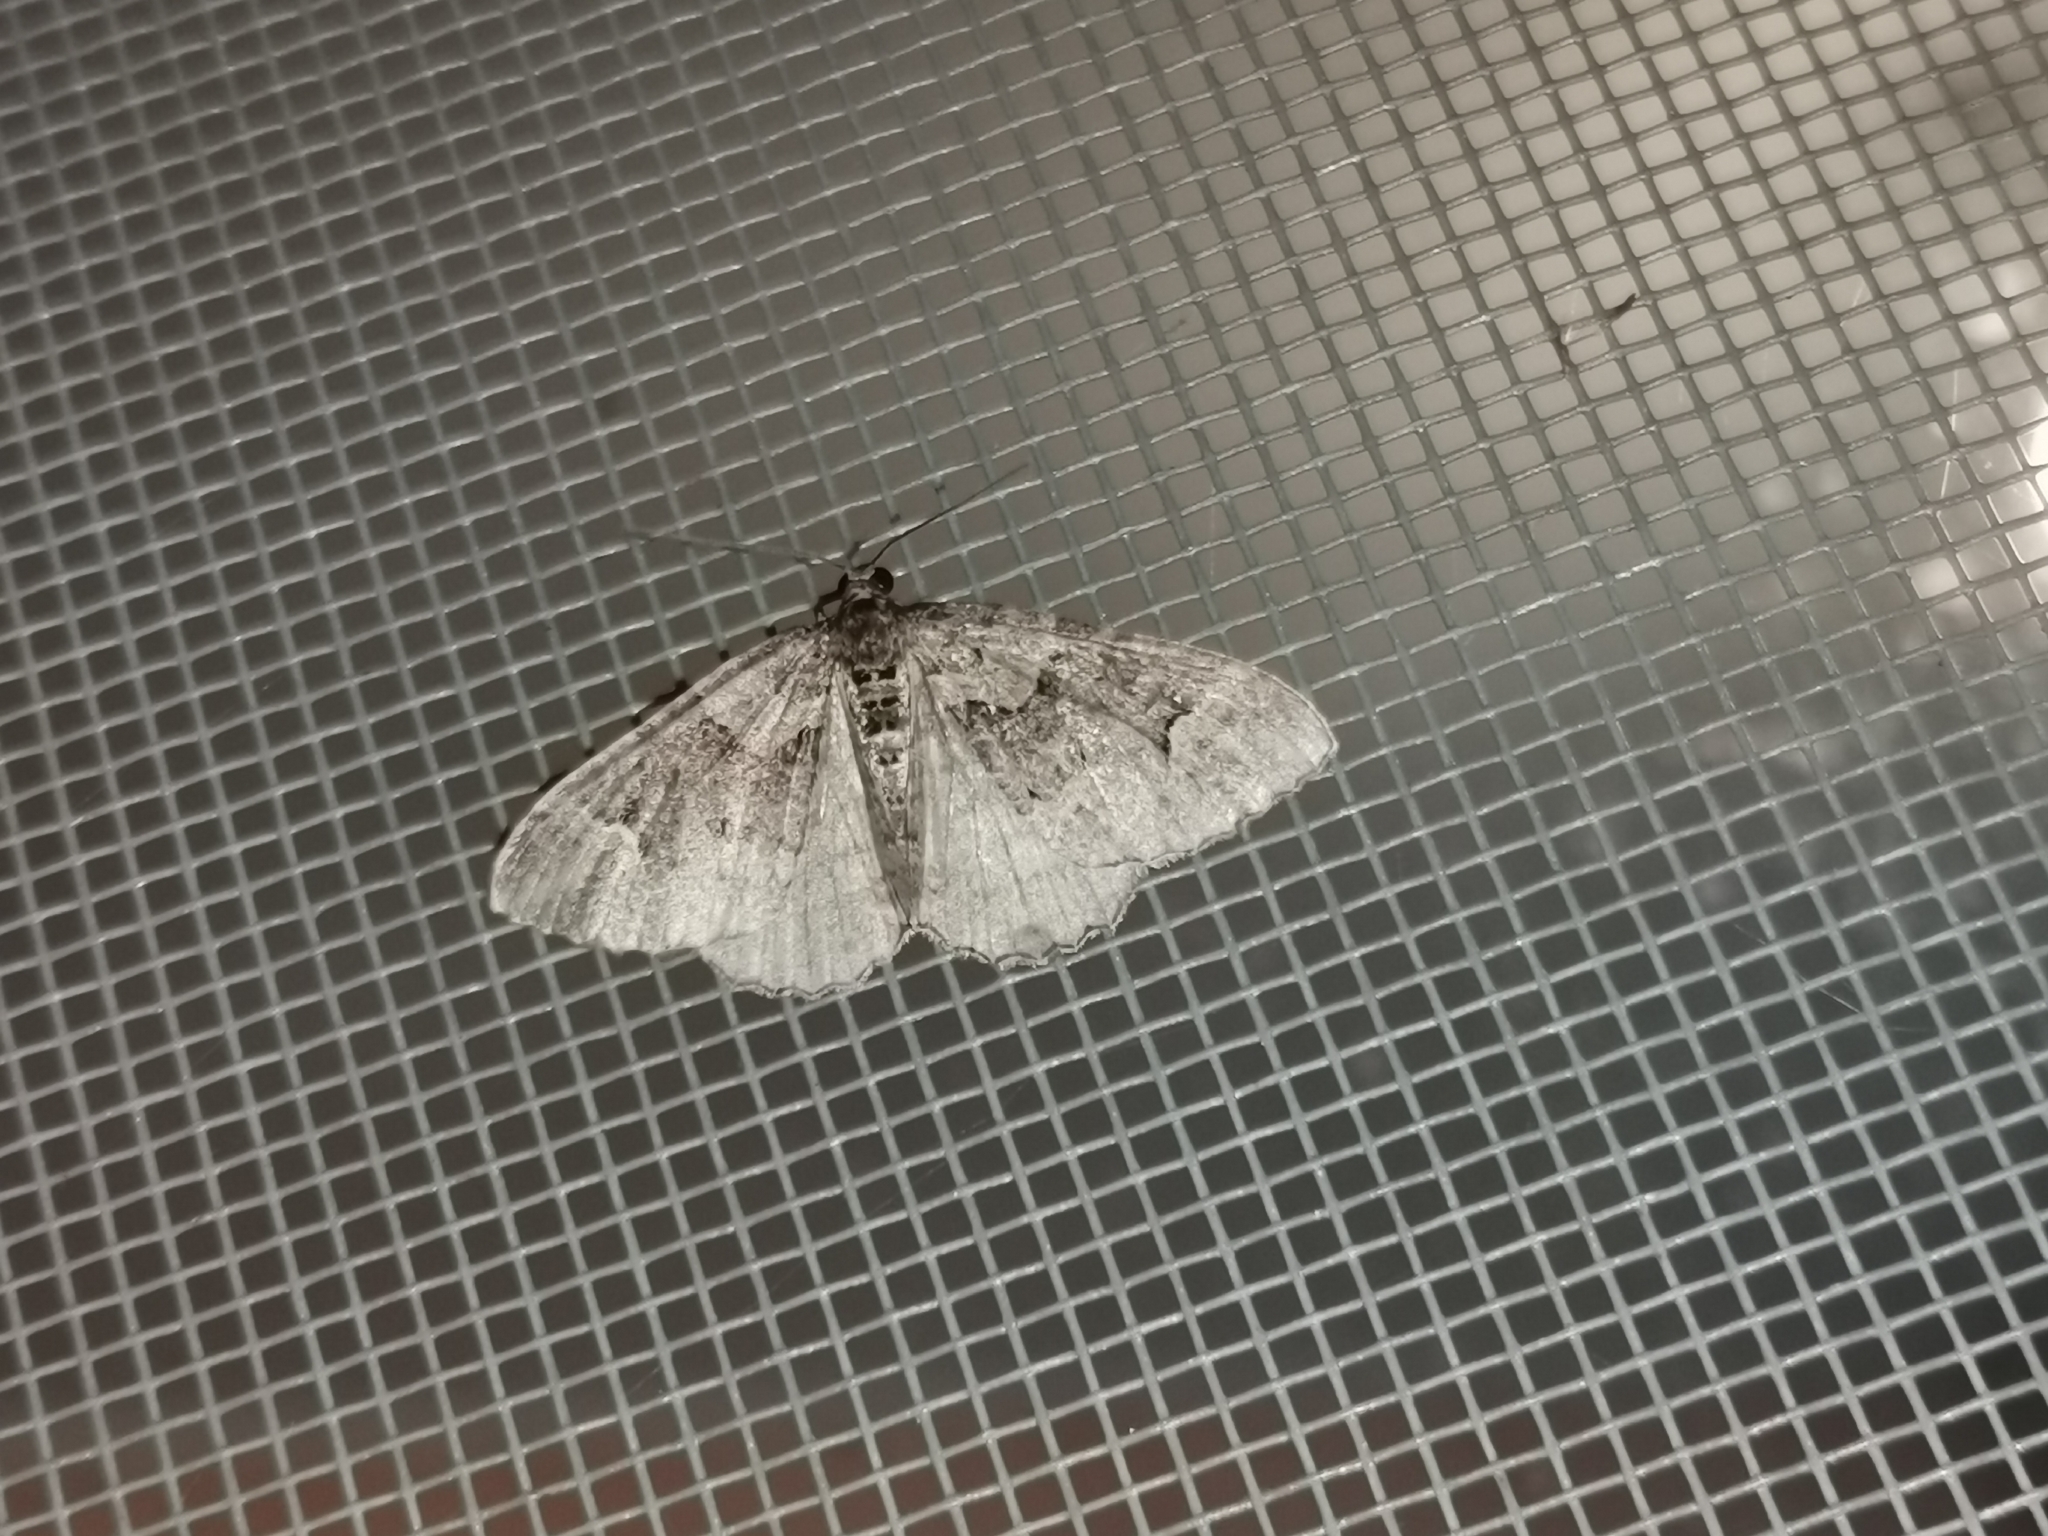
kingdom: Animalia
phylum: Arthropoda
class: Insecta
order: Lepidoptera
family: Geometridae
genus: Catarhoe
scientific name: Catarhoe basochesiata
